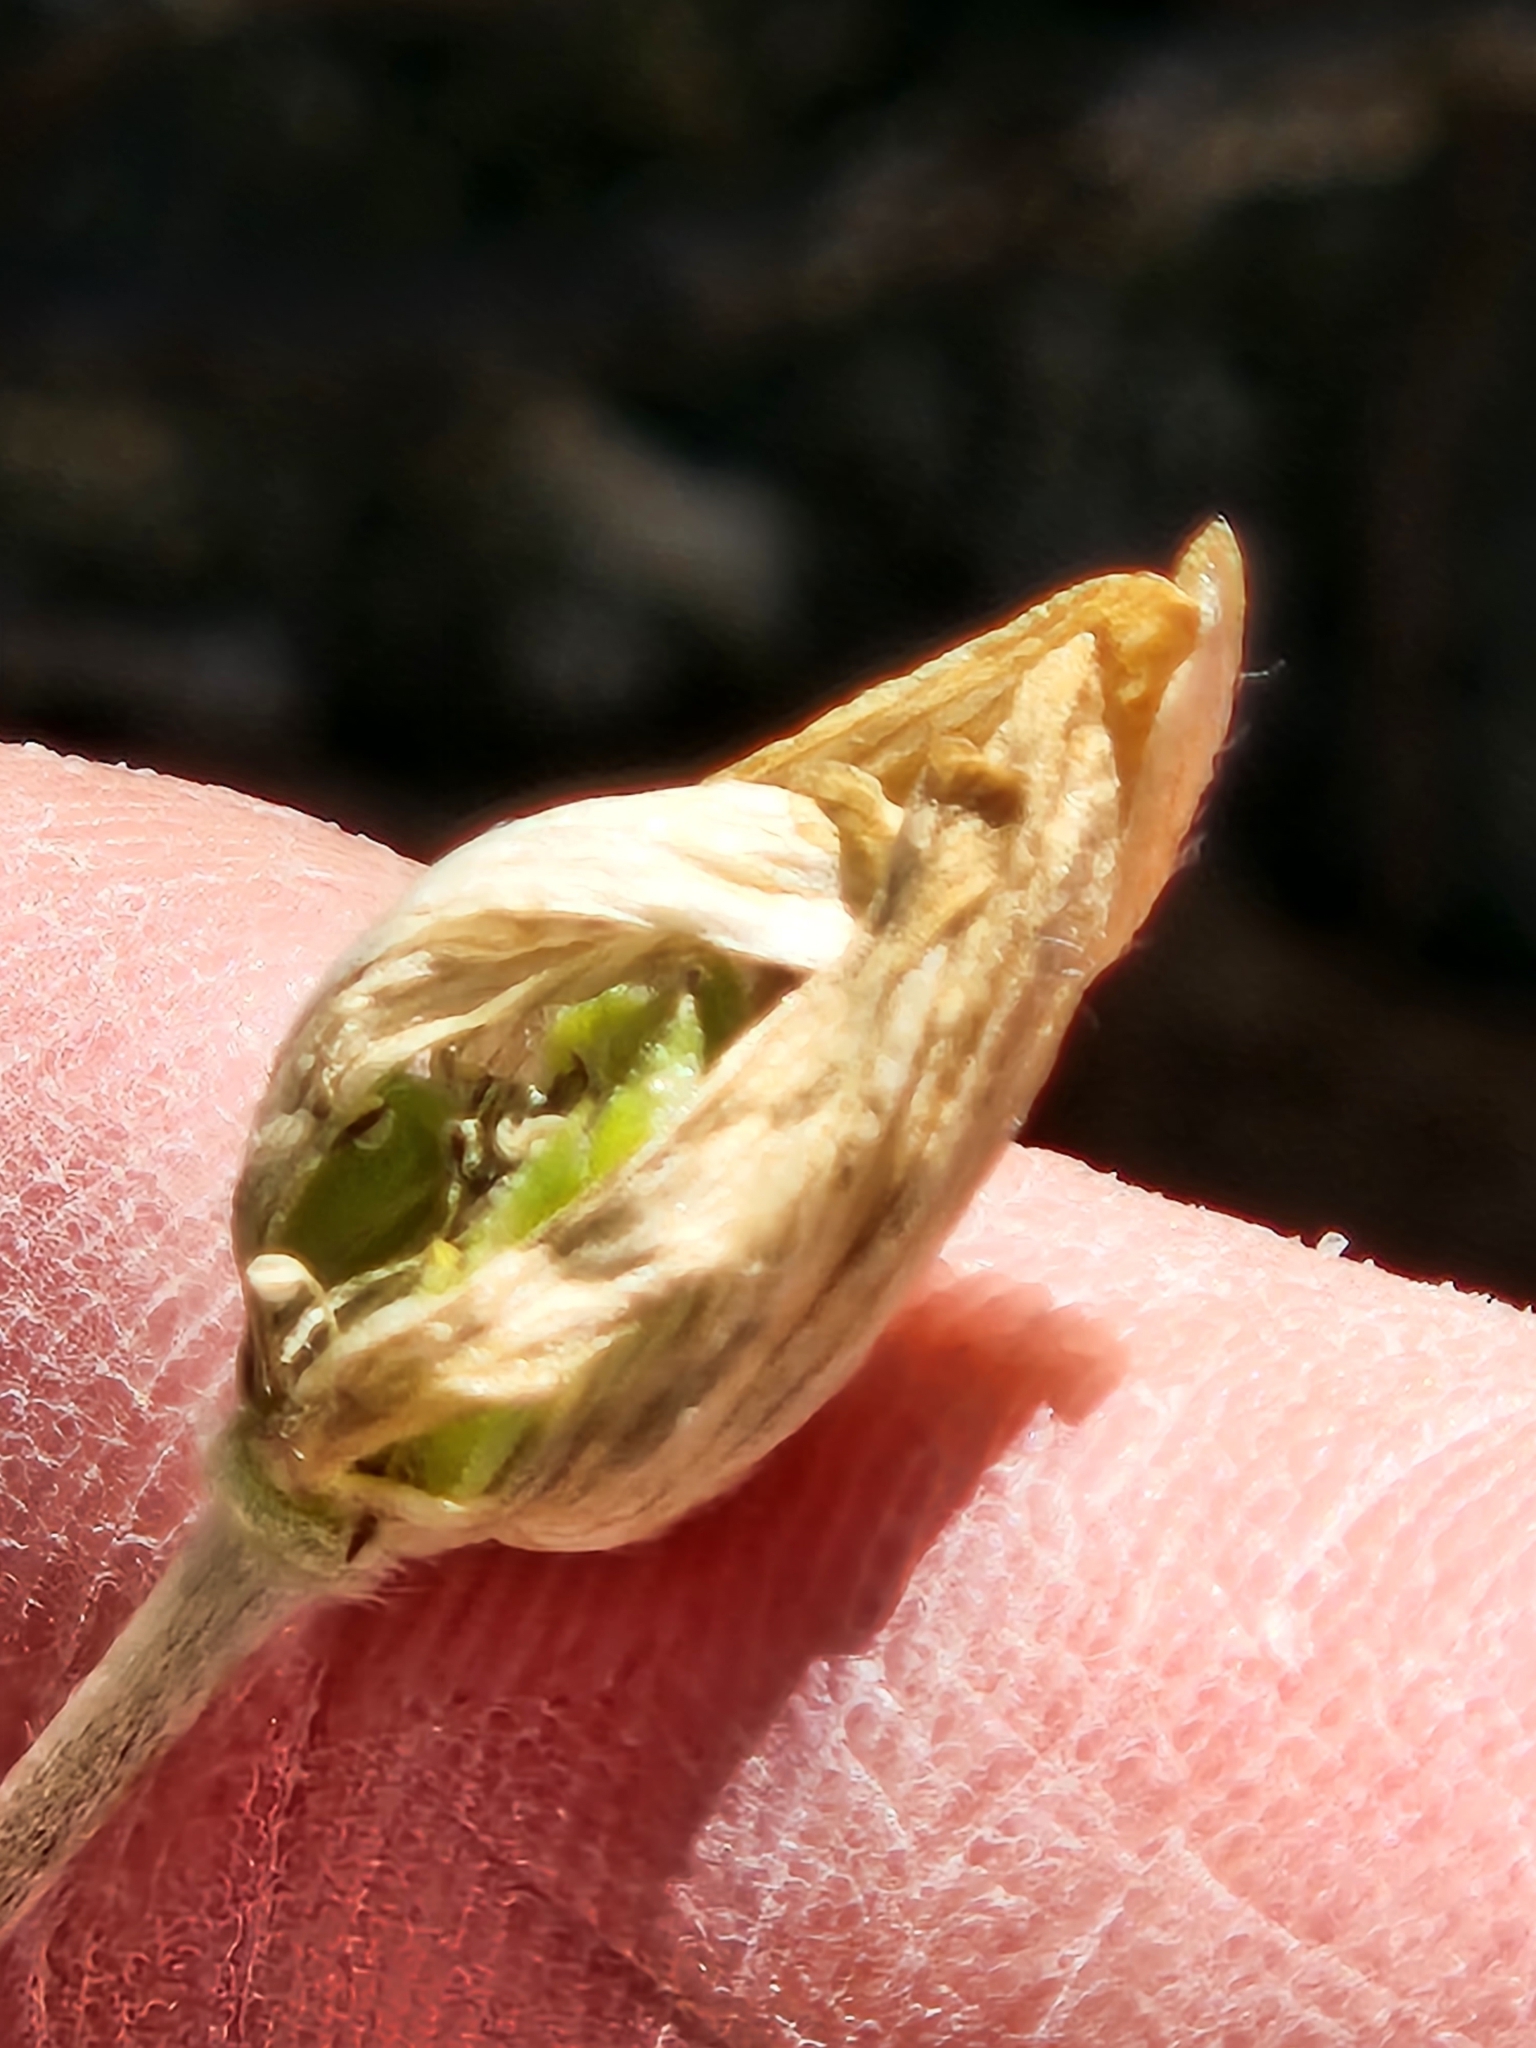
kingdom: Plantae
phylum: Tracheophyta
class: Magnoliopsida
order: Ranunculales
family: Ranunculaceae
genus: Anemone
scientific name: Anemone edwardsiana
